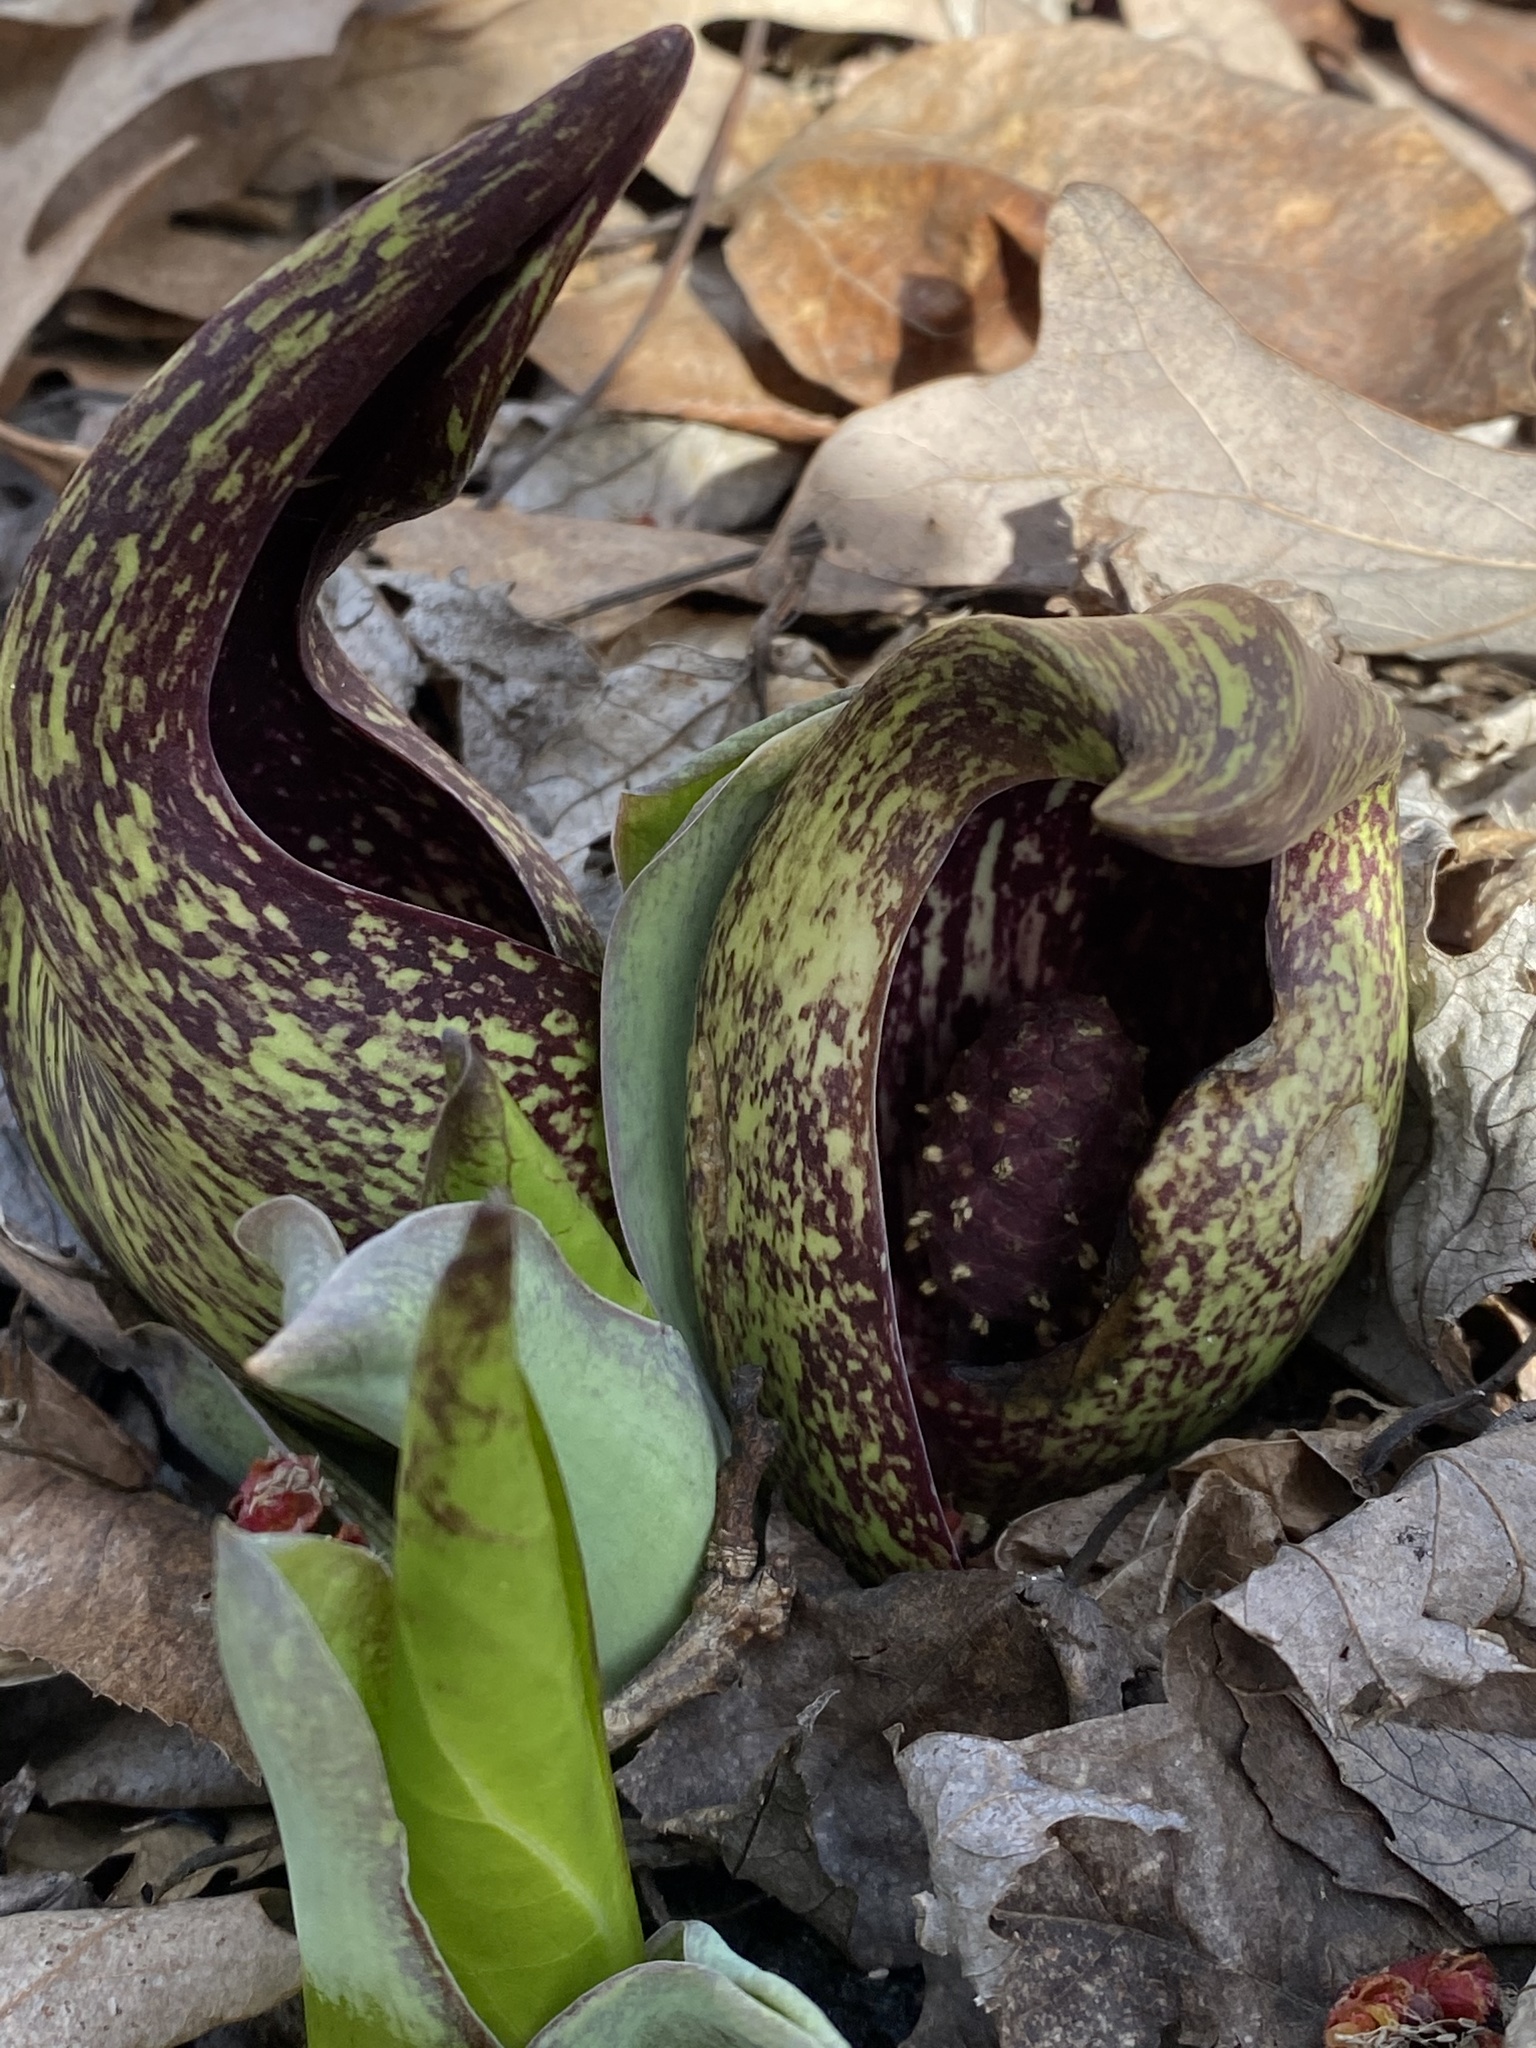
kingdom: Plantae
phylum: Tracheophyta
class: Liliopsida
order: Alismatales
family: Araceae
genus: Symplocarpus
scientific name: Symplocarpus foetidus
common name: Eastern skunk cabbage
